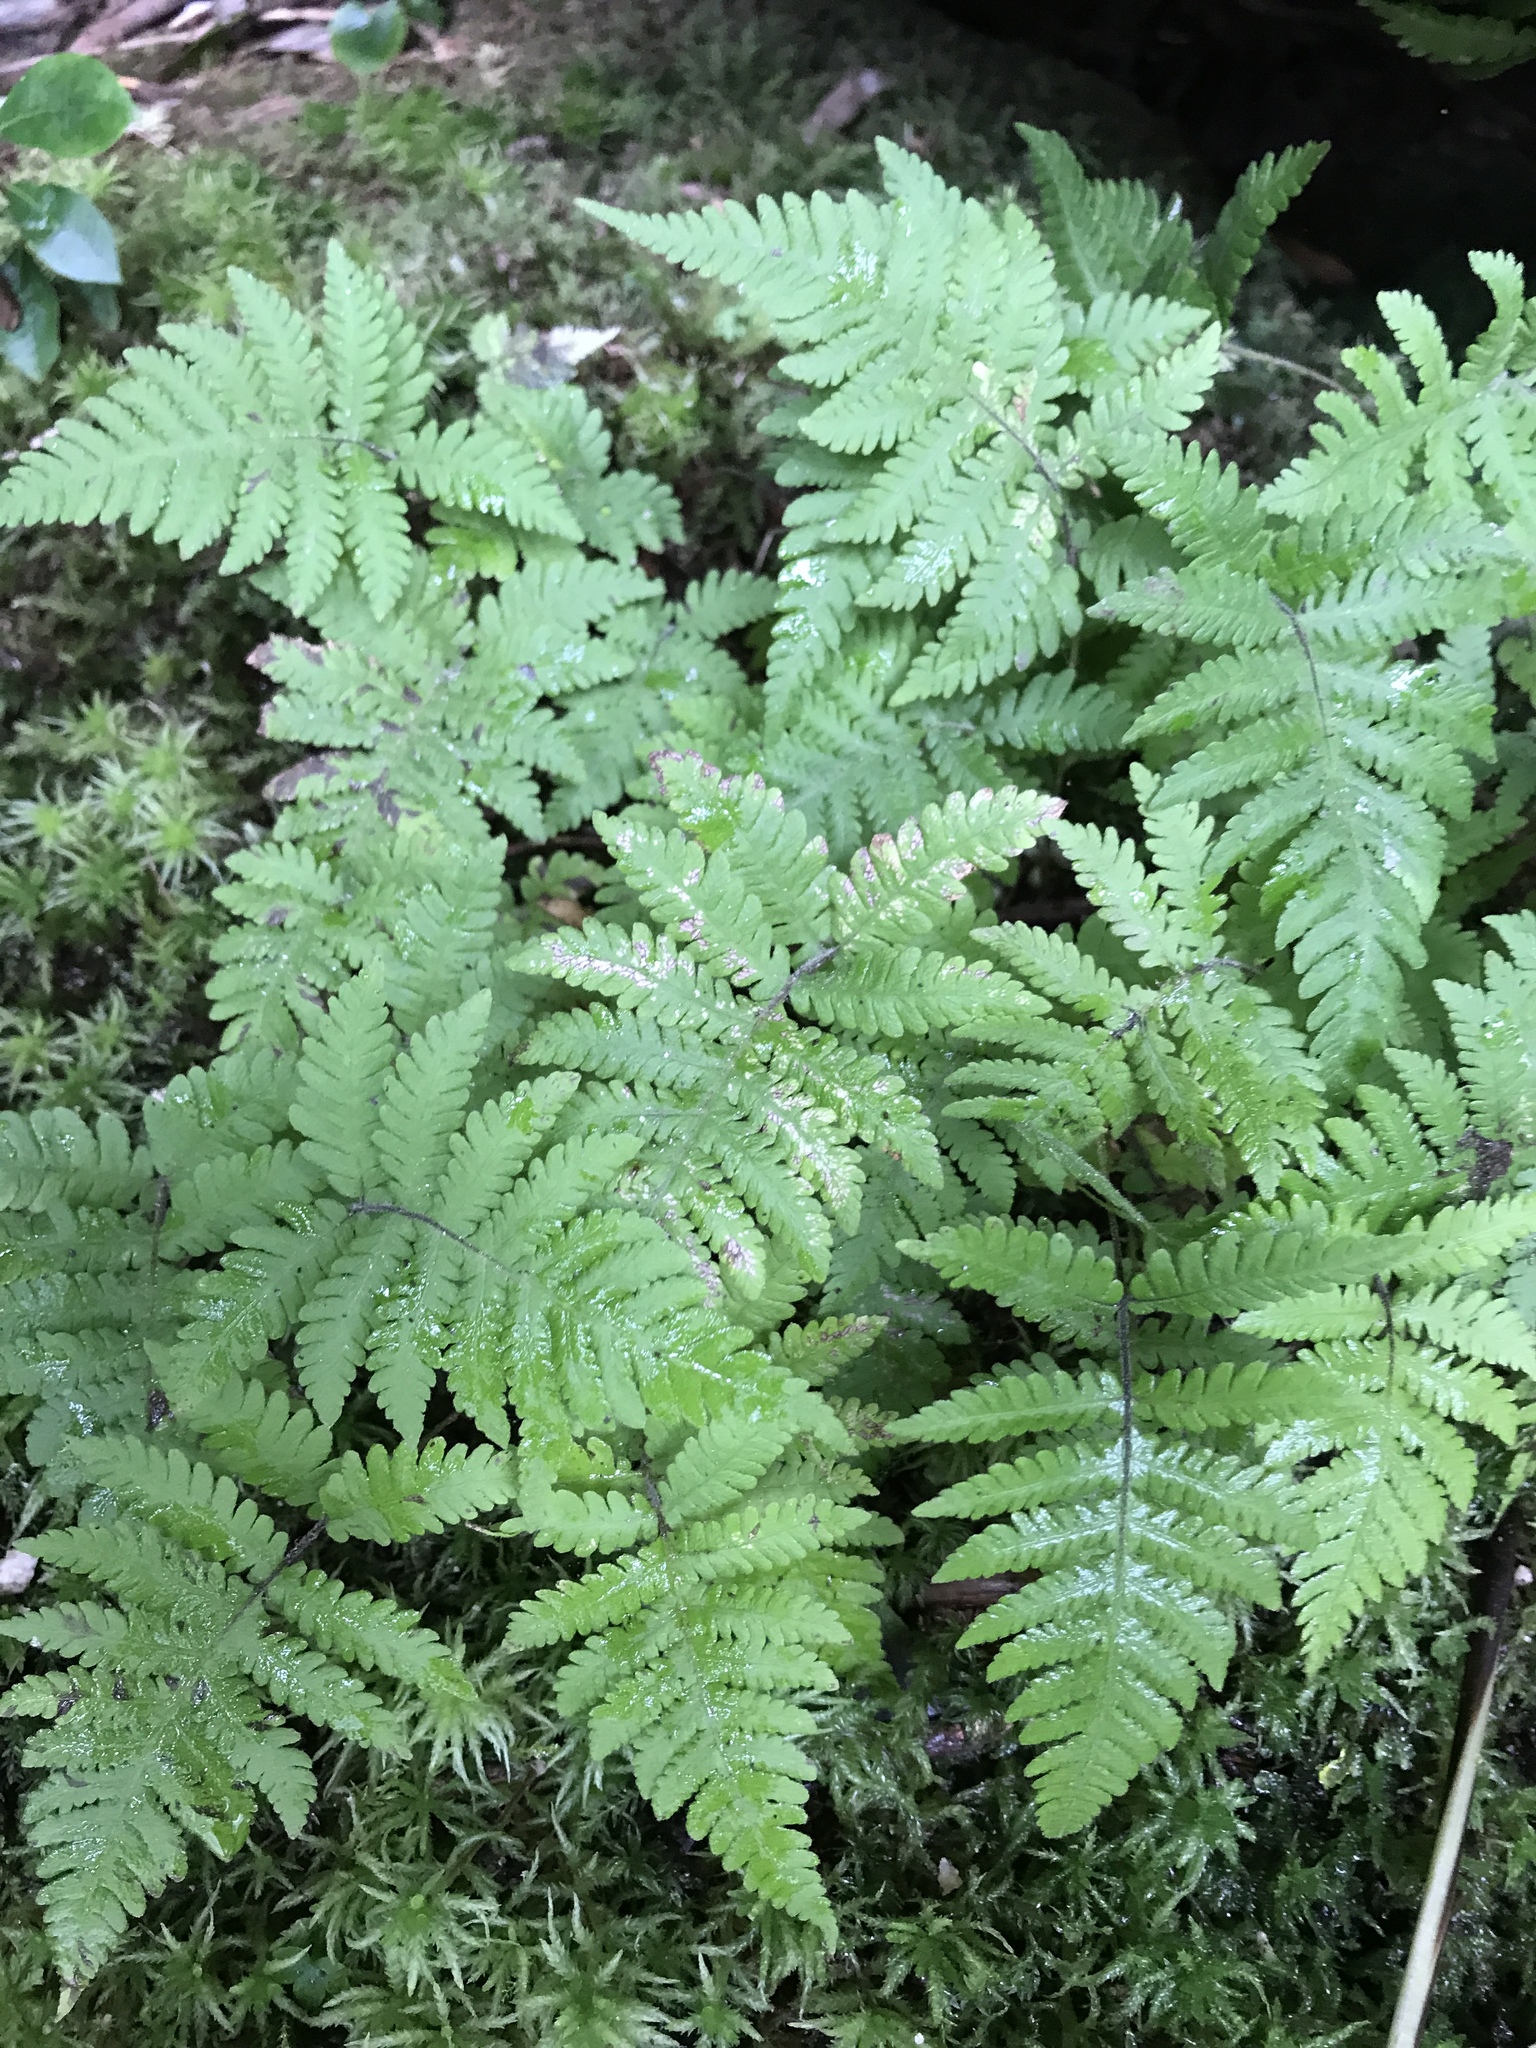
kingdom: Plantae
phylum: Tracheophyta
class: Polypodiopsida
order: Polypodiales
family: Thelypteridaceae
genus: Phegopteris
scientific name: Phegopteris connectilis
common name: Beech fern
